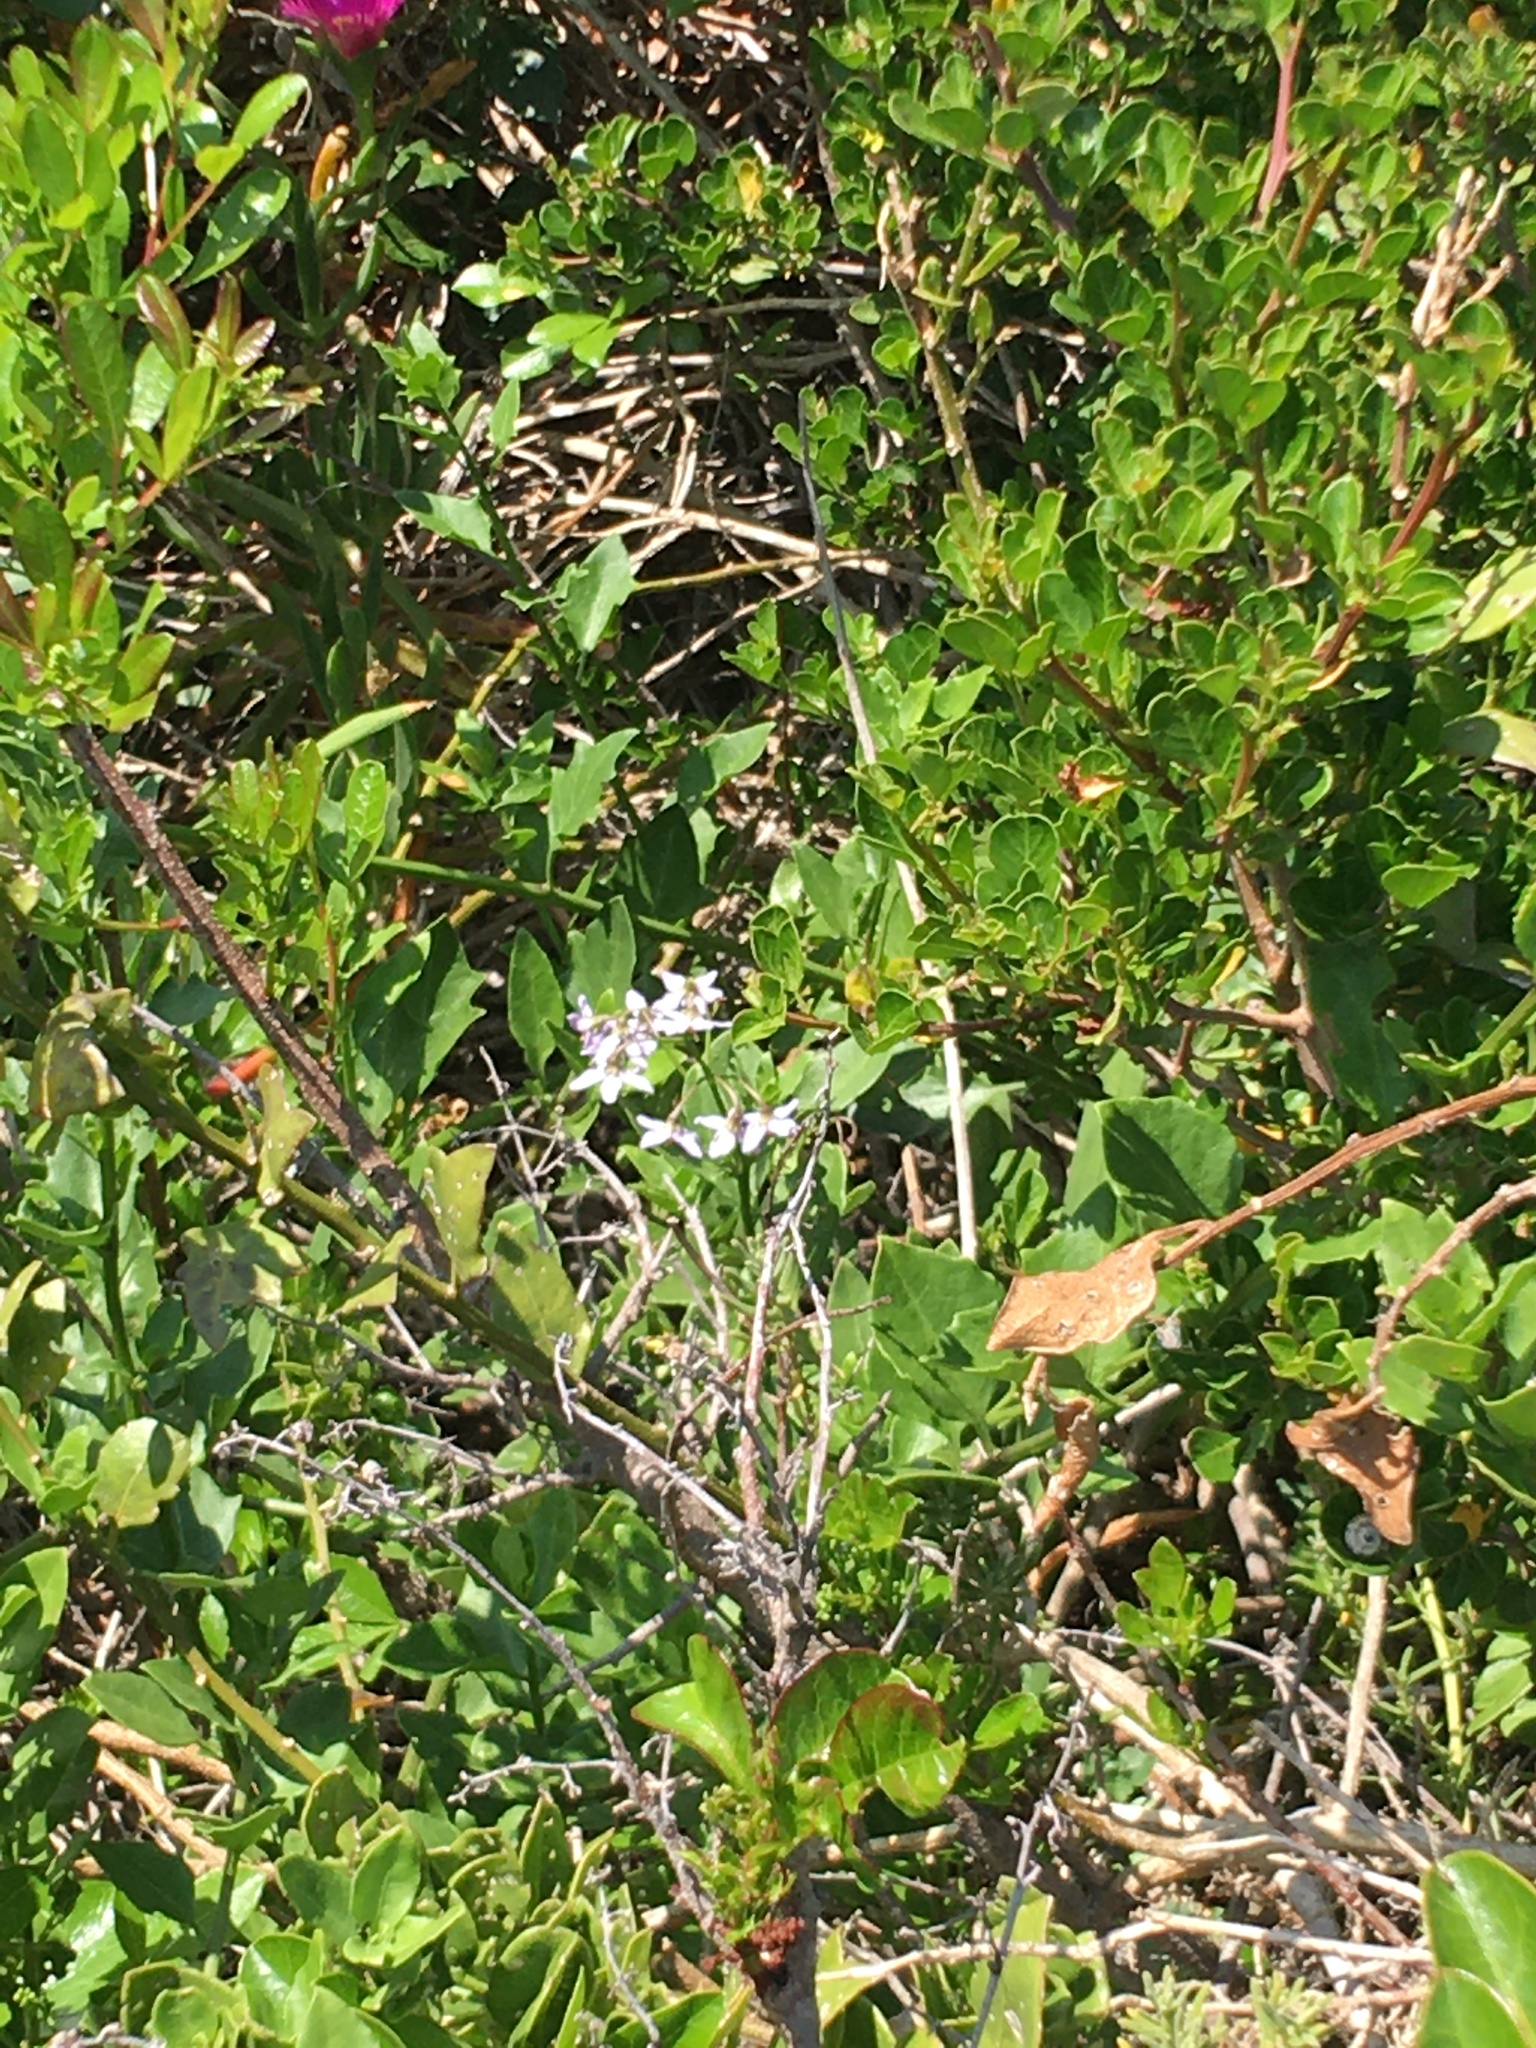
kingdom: Plantae
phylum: Tracheophyta
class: Magnoliopsida
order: Solanales
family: Solanaceae
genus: Solanum
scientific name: Solanum africanum
